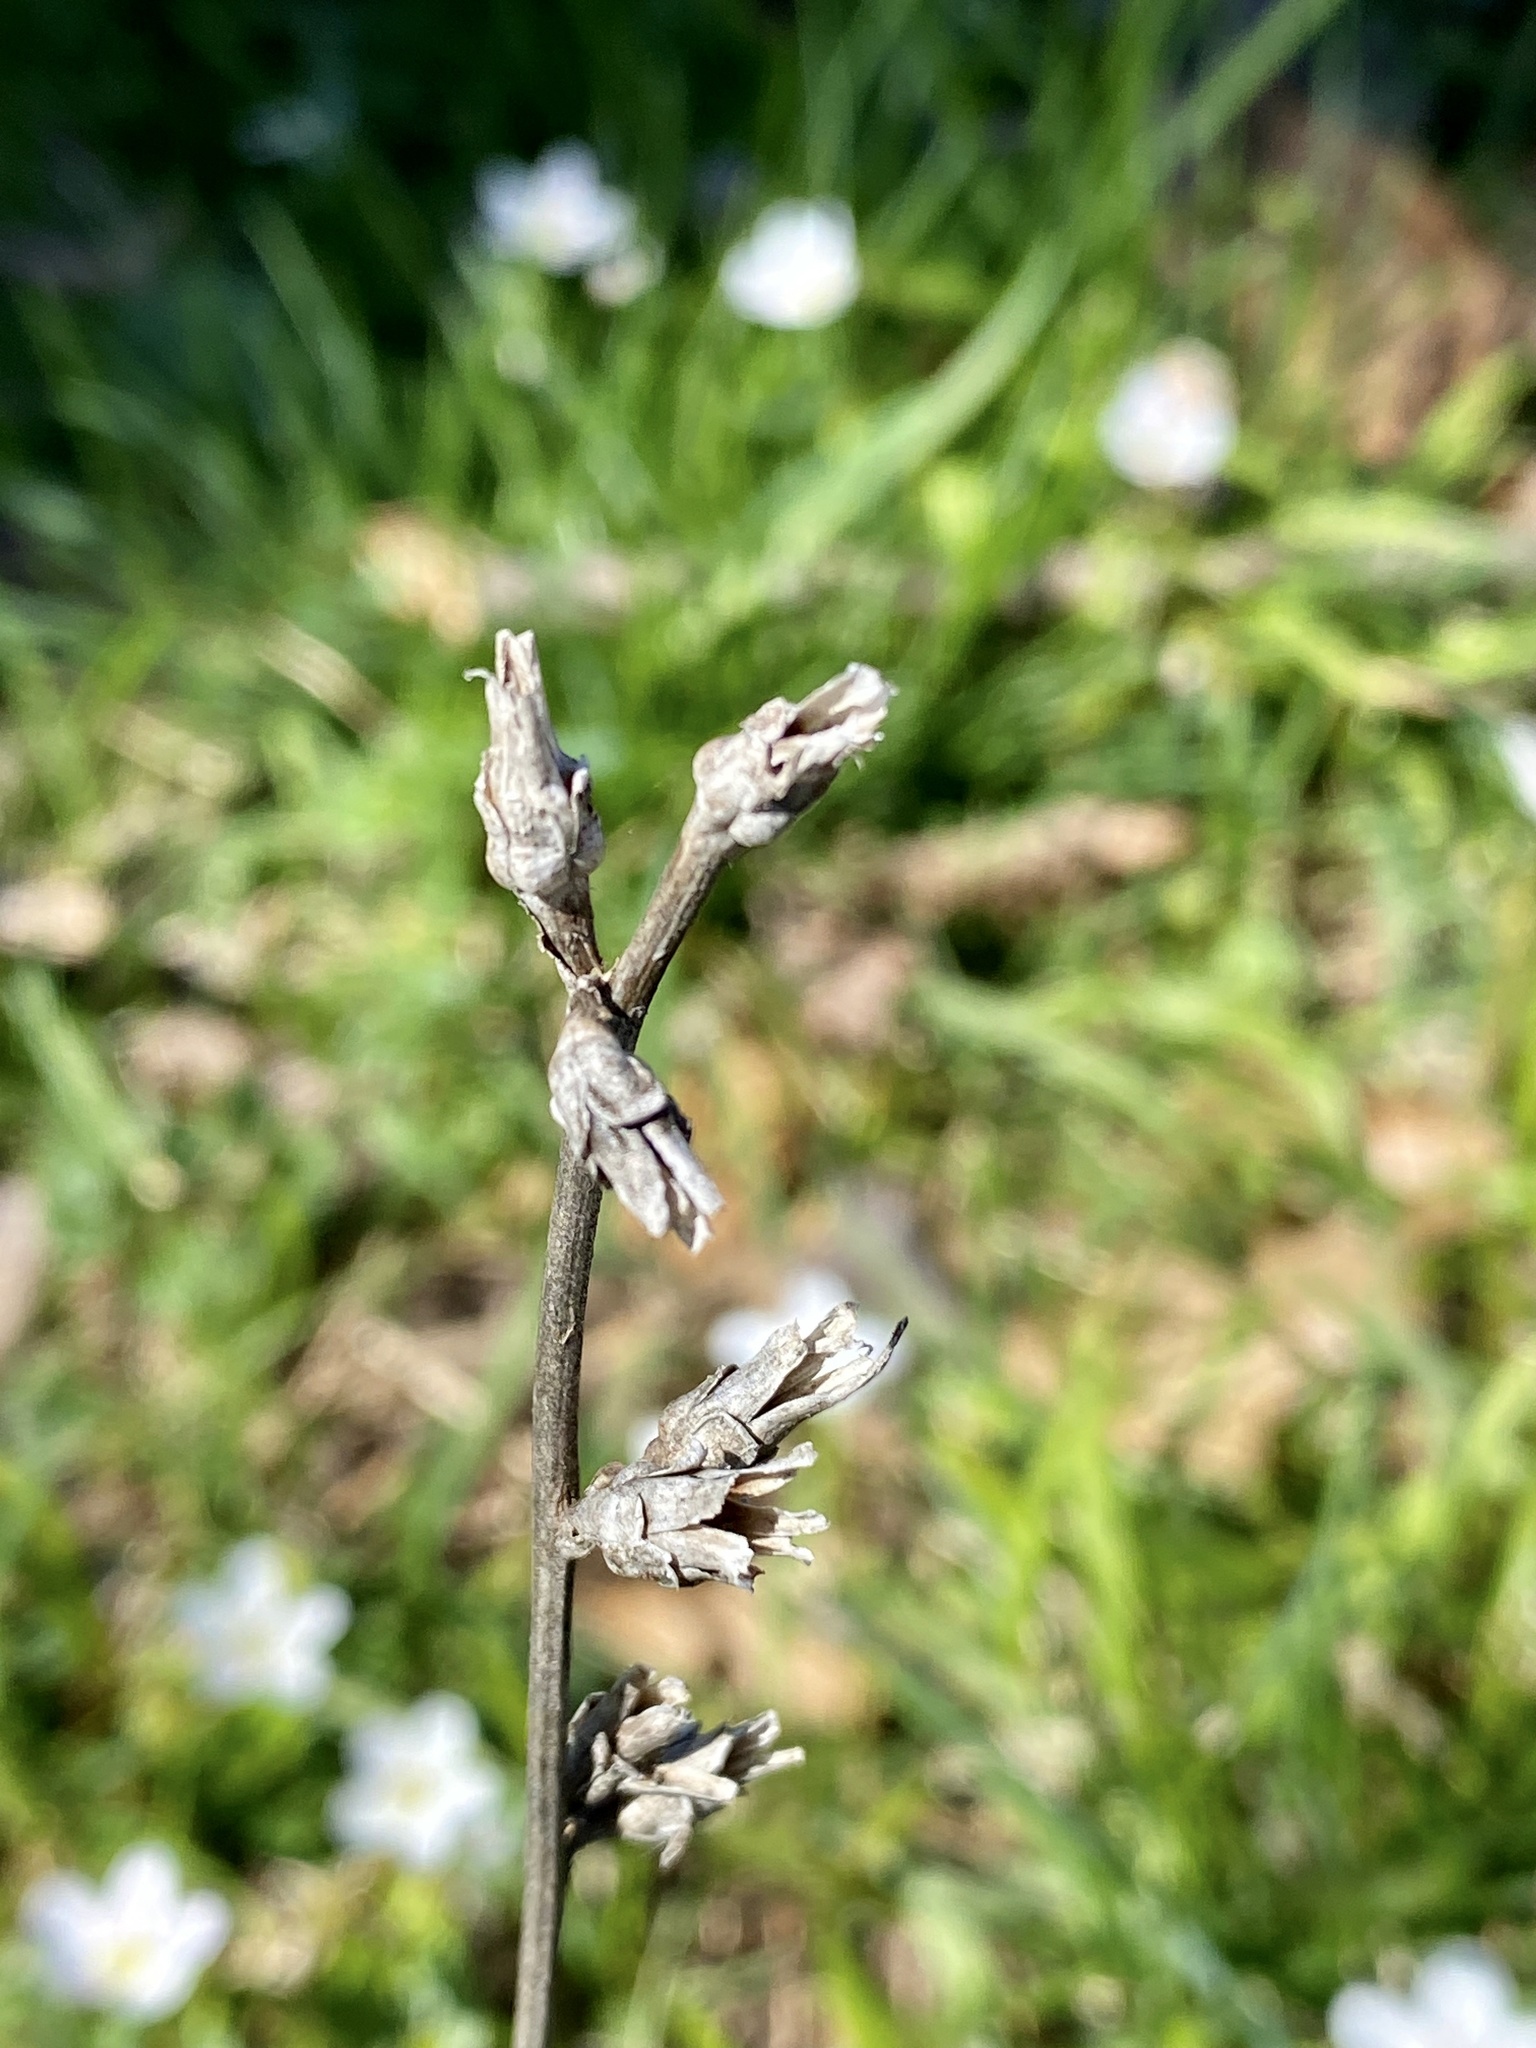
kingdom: Plantae
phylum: Tracheophyta
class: Magnoliopsida
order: Asterales
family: Asteraceae
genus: Cichorium
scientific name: Cichorium intybus
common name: Chicory
